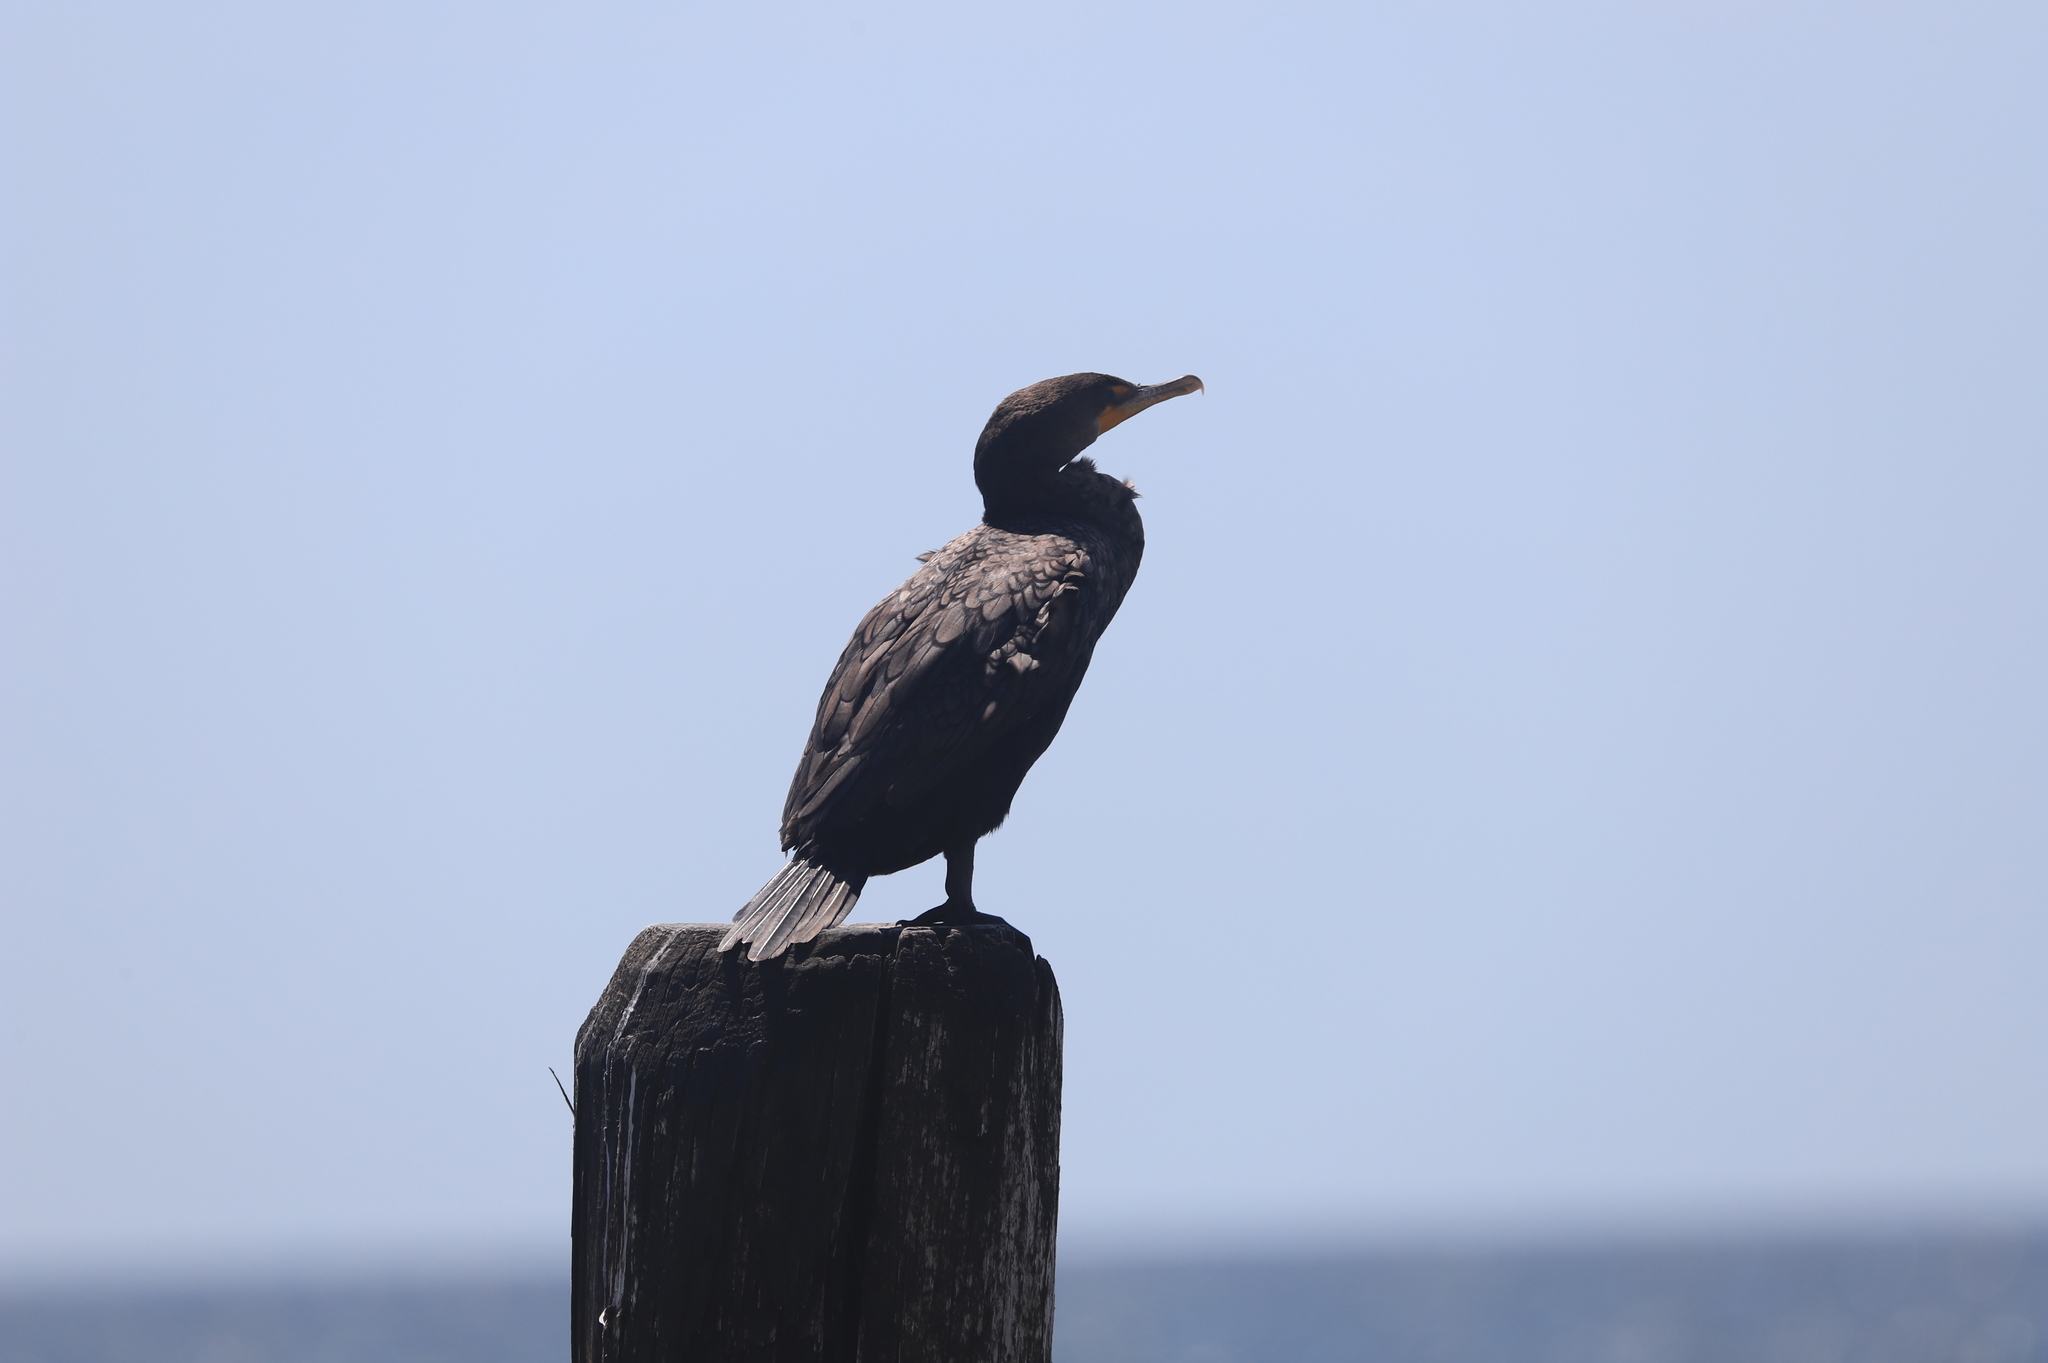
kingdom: Animalia
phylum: Chordata
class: Aves
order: Suliformes
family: Phalacrocoracidae
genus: Phalacrocorax
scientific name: Phalacrocorax auritus
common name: Double-crested cormorant
